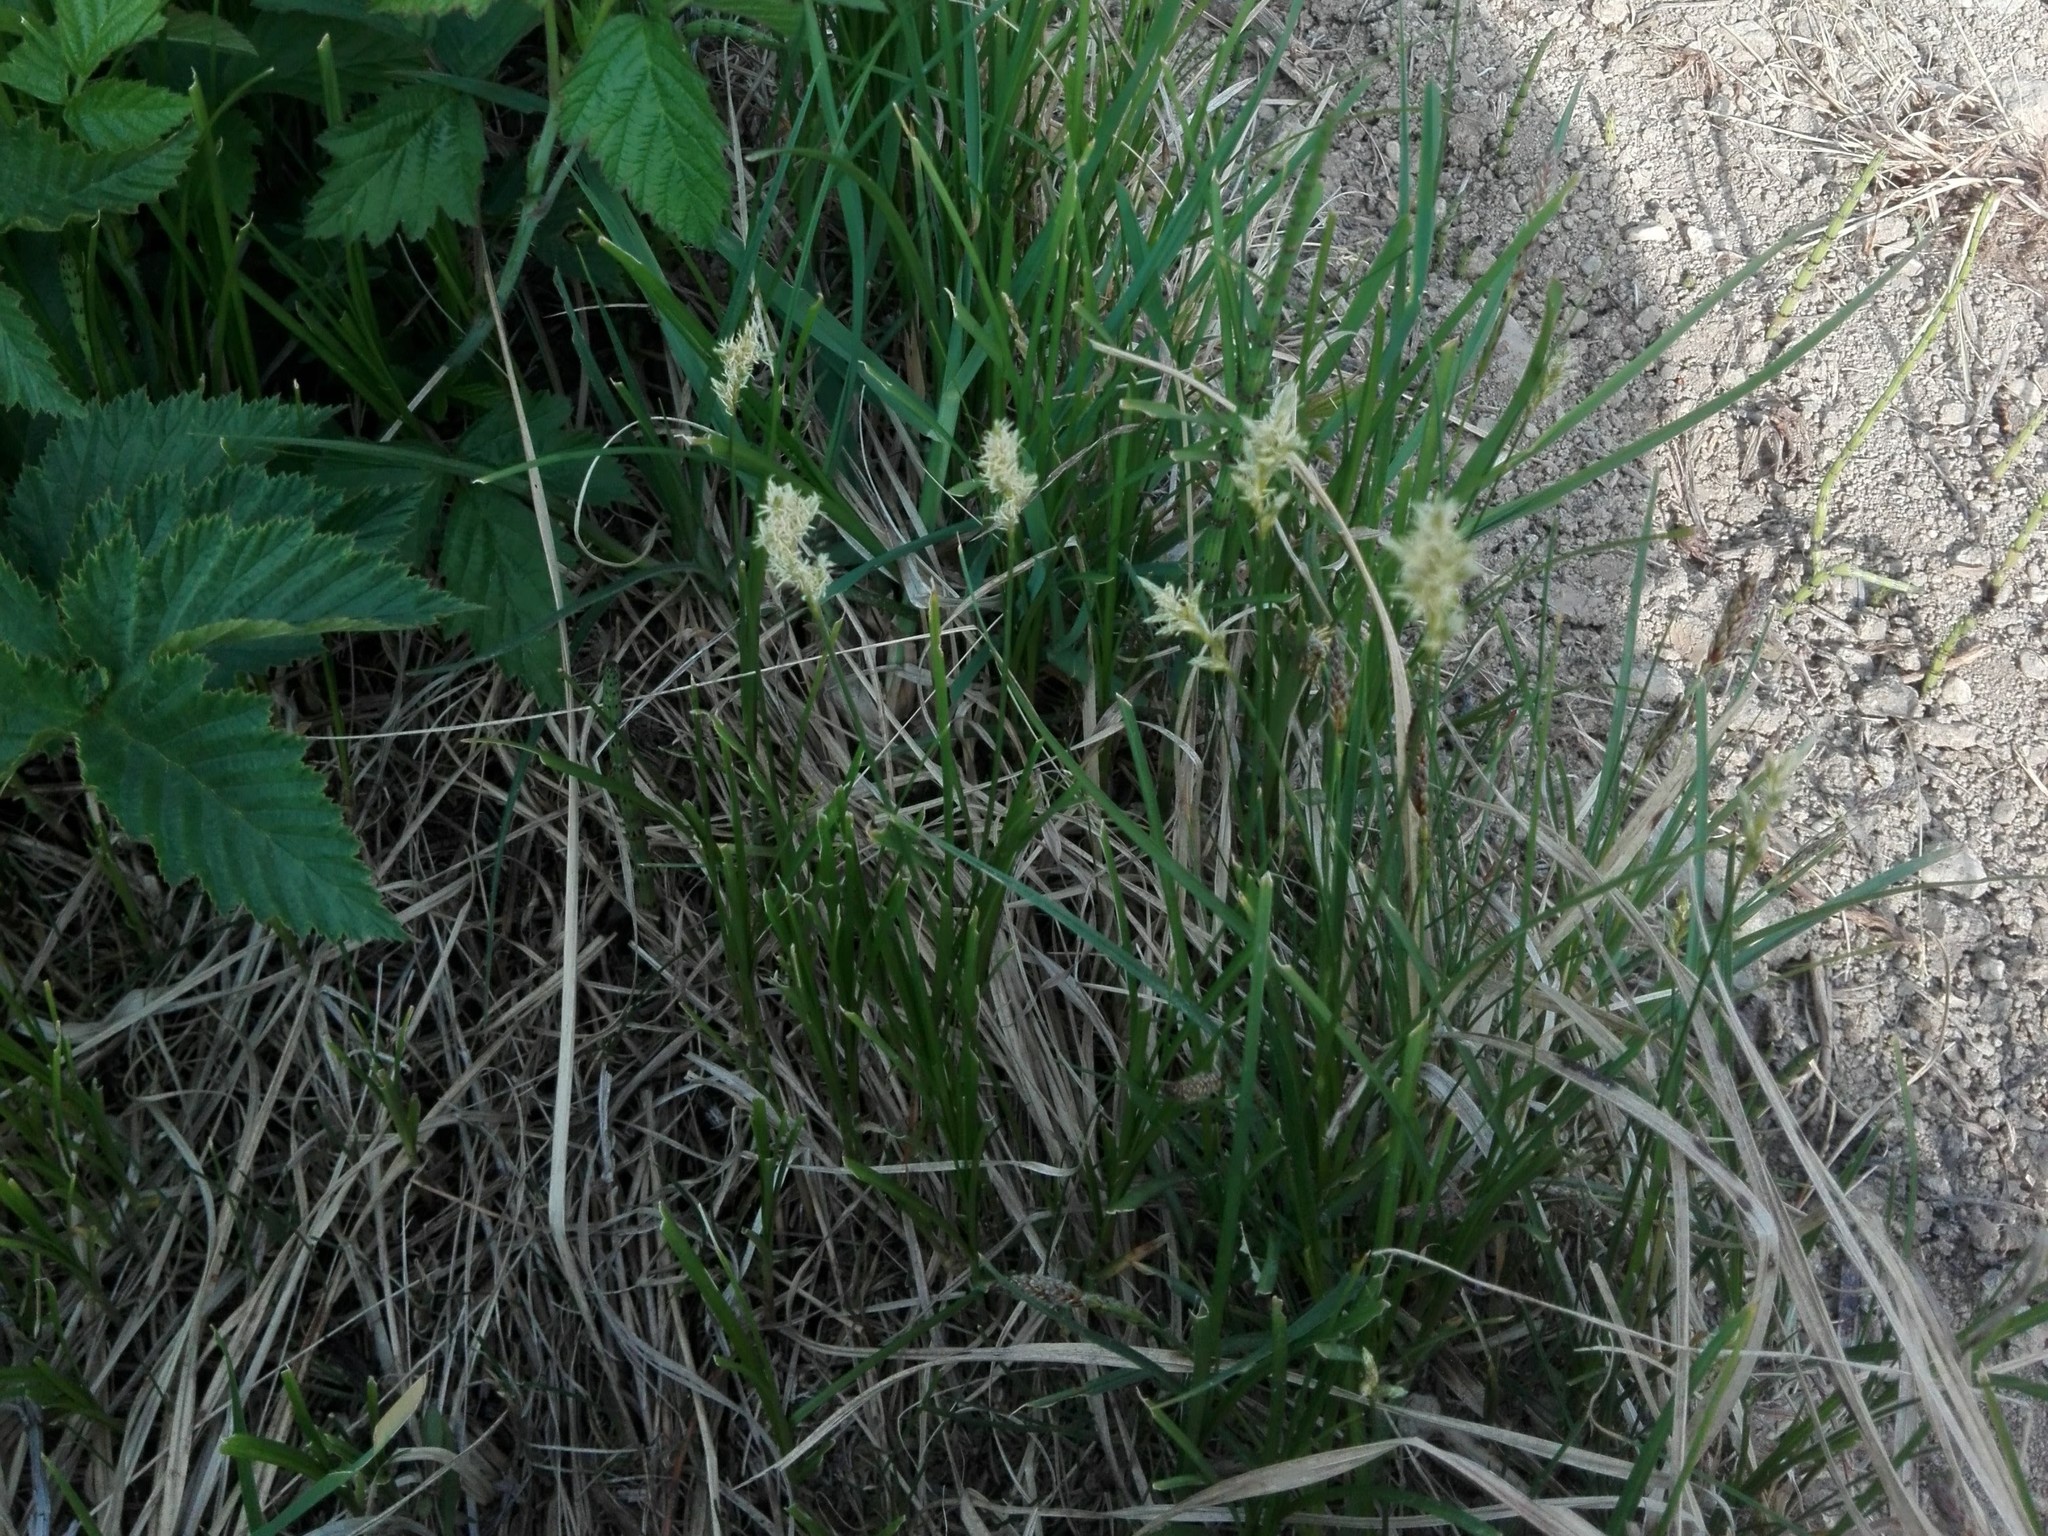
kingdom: Plantae
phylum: Tracheophyta
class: Liliopsida
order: Poales
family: Cyperaceae
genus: Carex
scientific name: Carex brizoides
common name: Quaking-grass sedge
